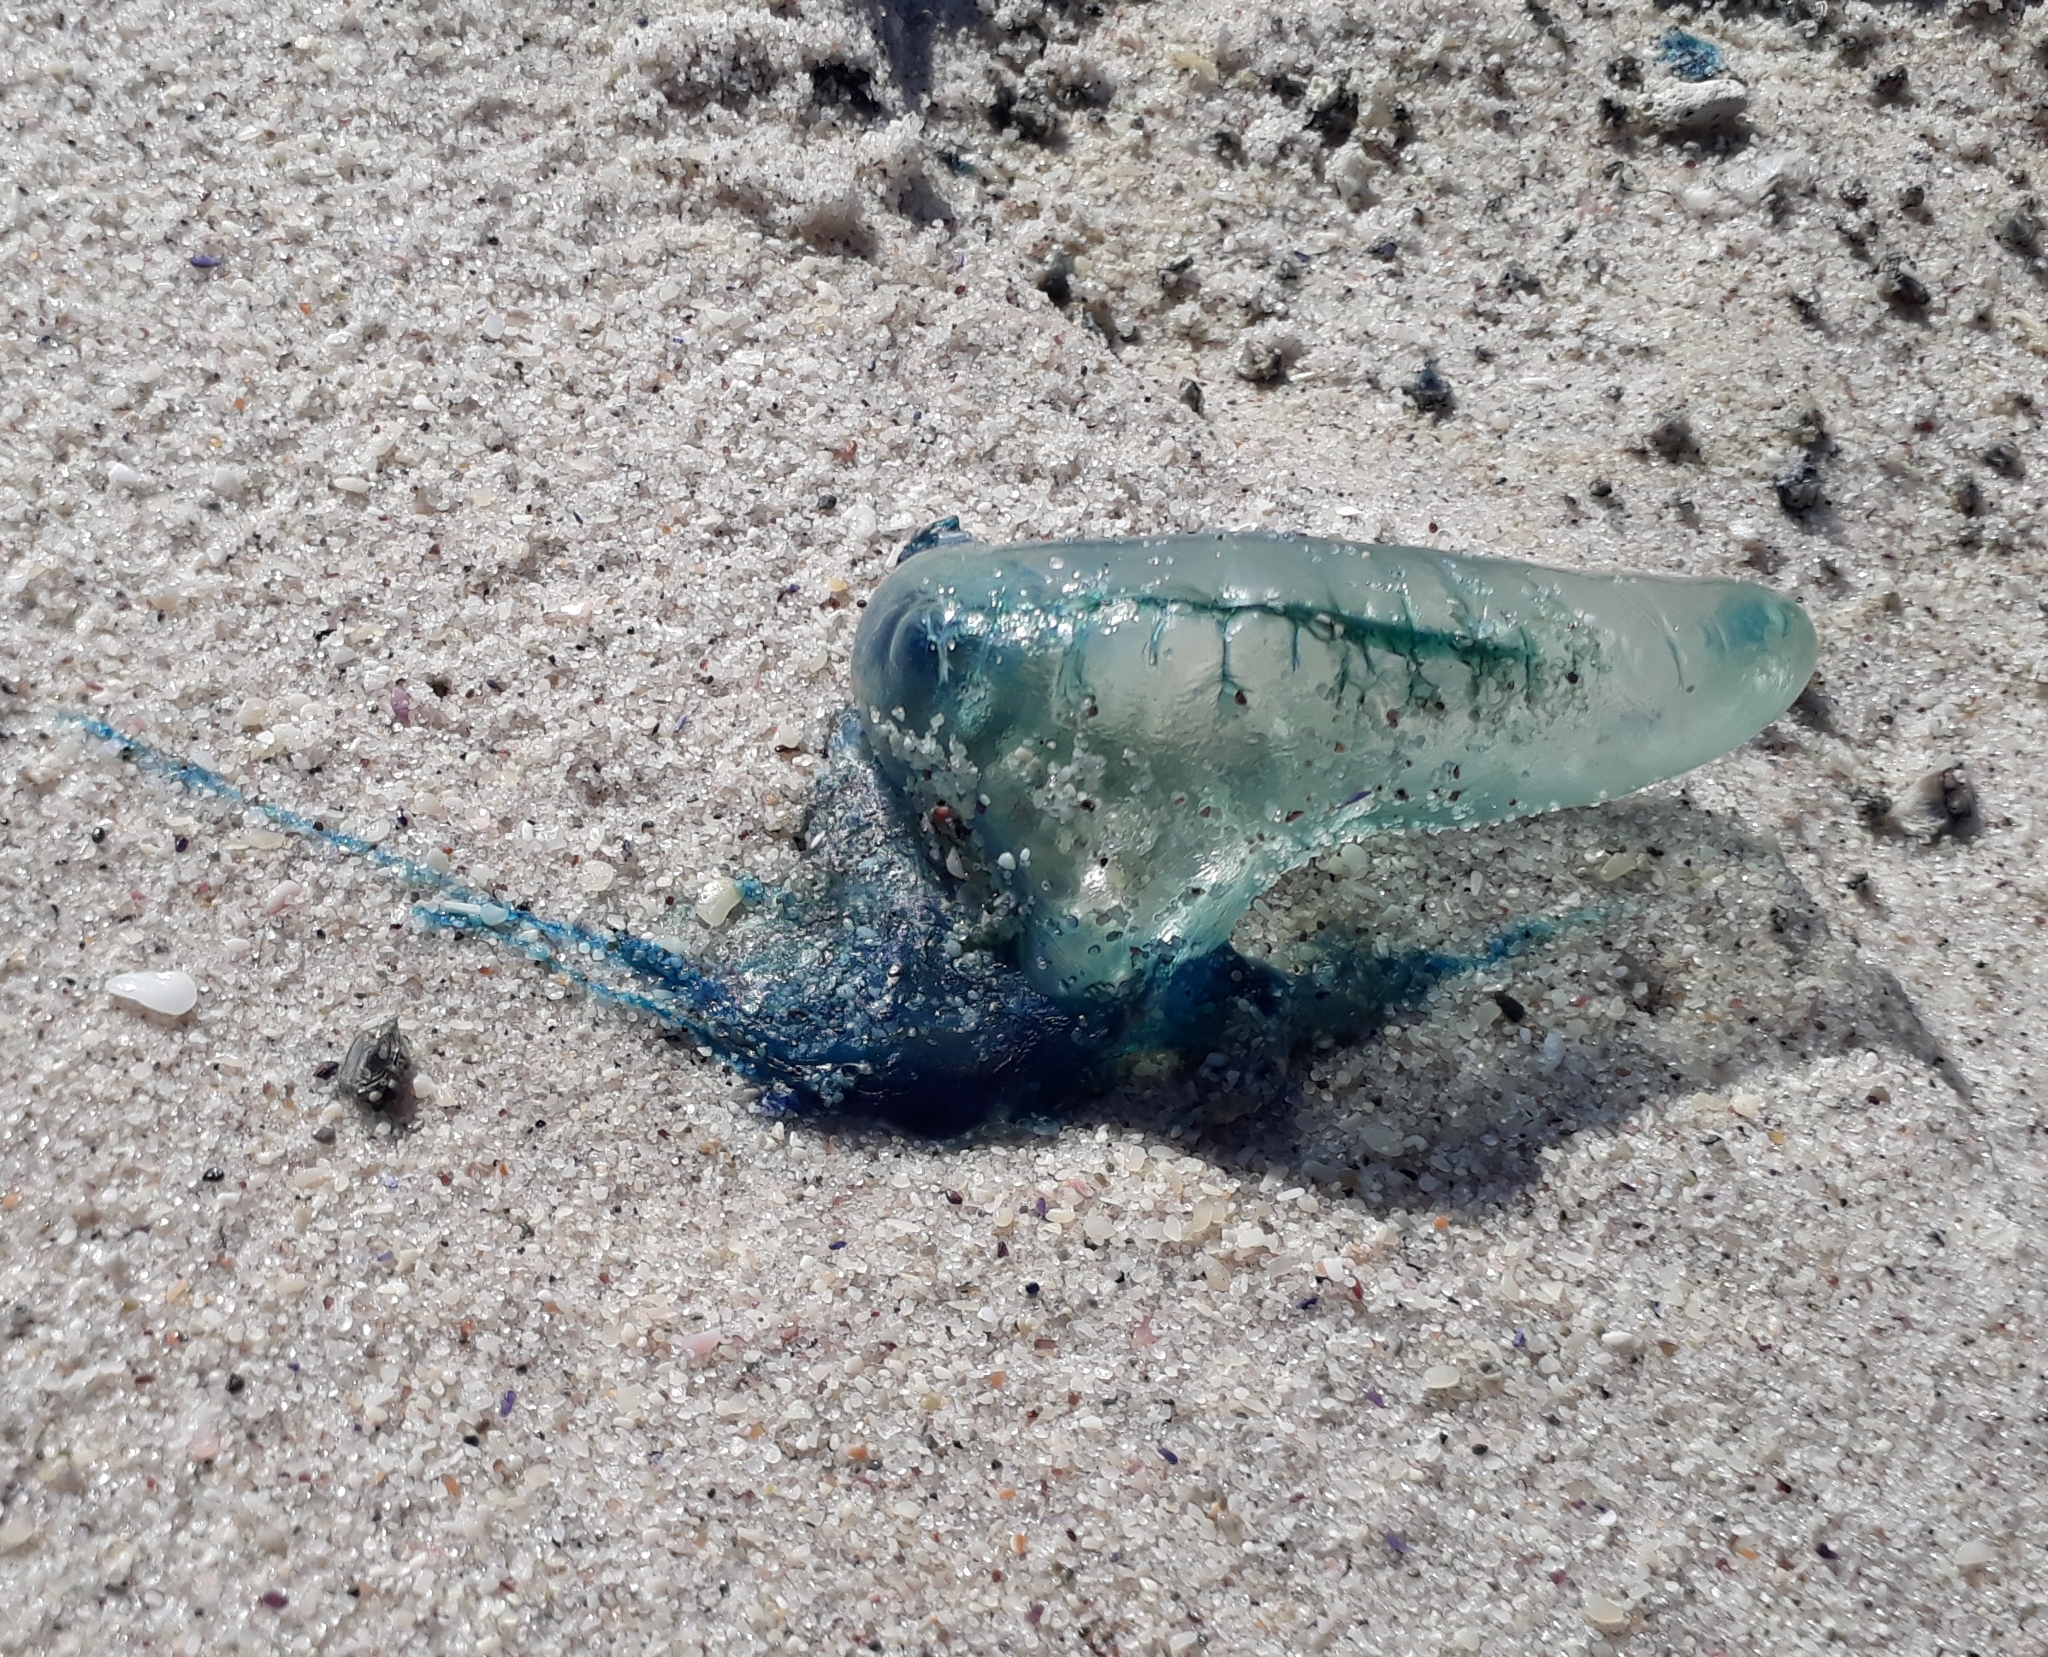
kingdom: Animalia
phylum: Cnidaria
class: Hydrozoa
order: Siphonophorae
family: Physaliidae
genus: Physalia
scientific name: Physalia physalis
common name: Portuguese man-of-war
